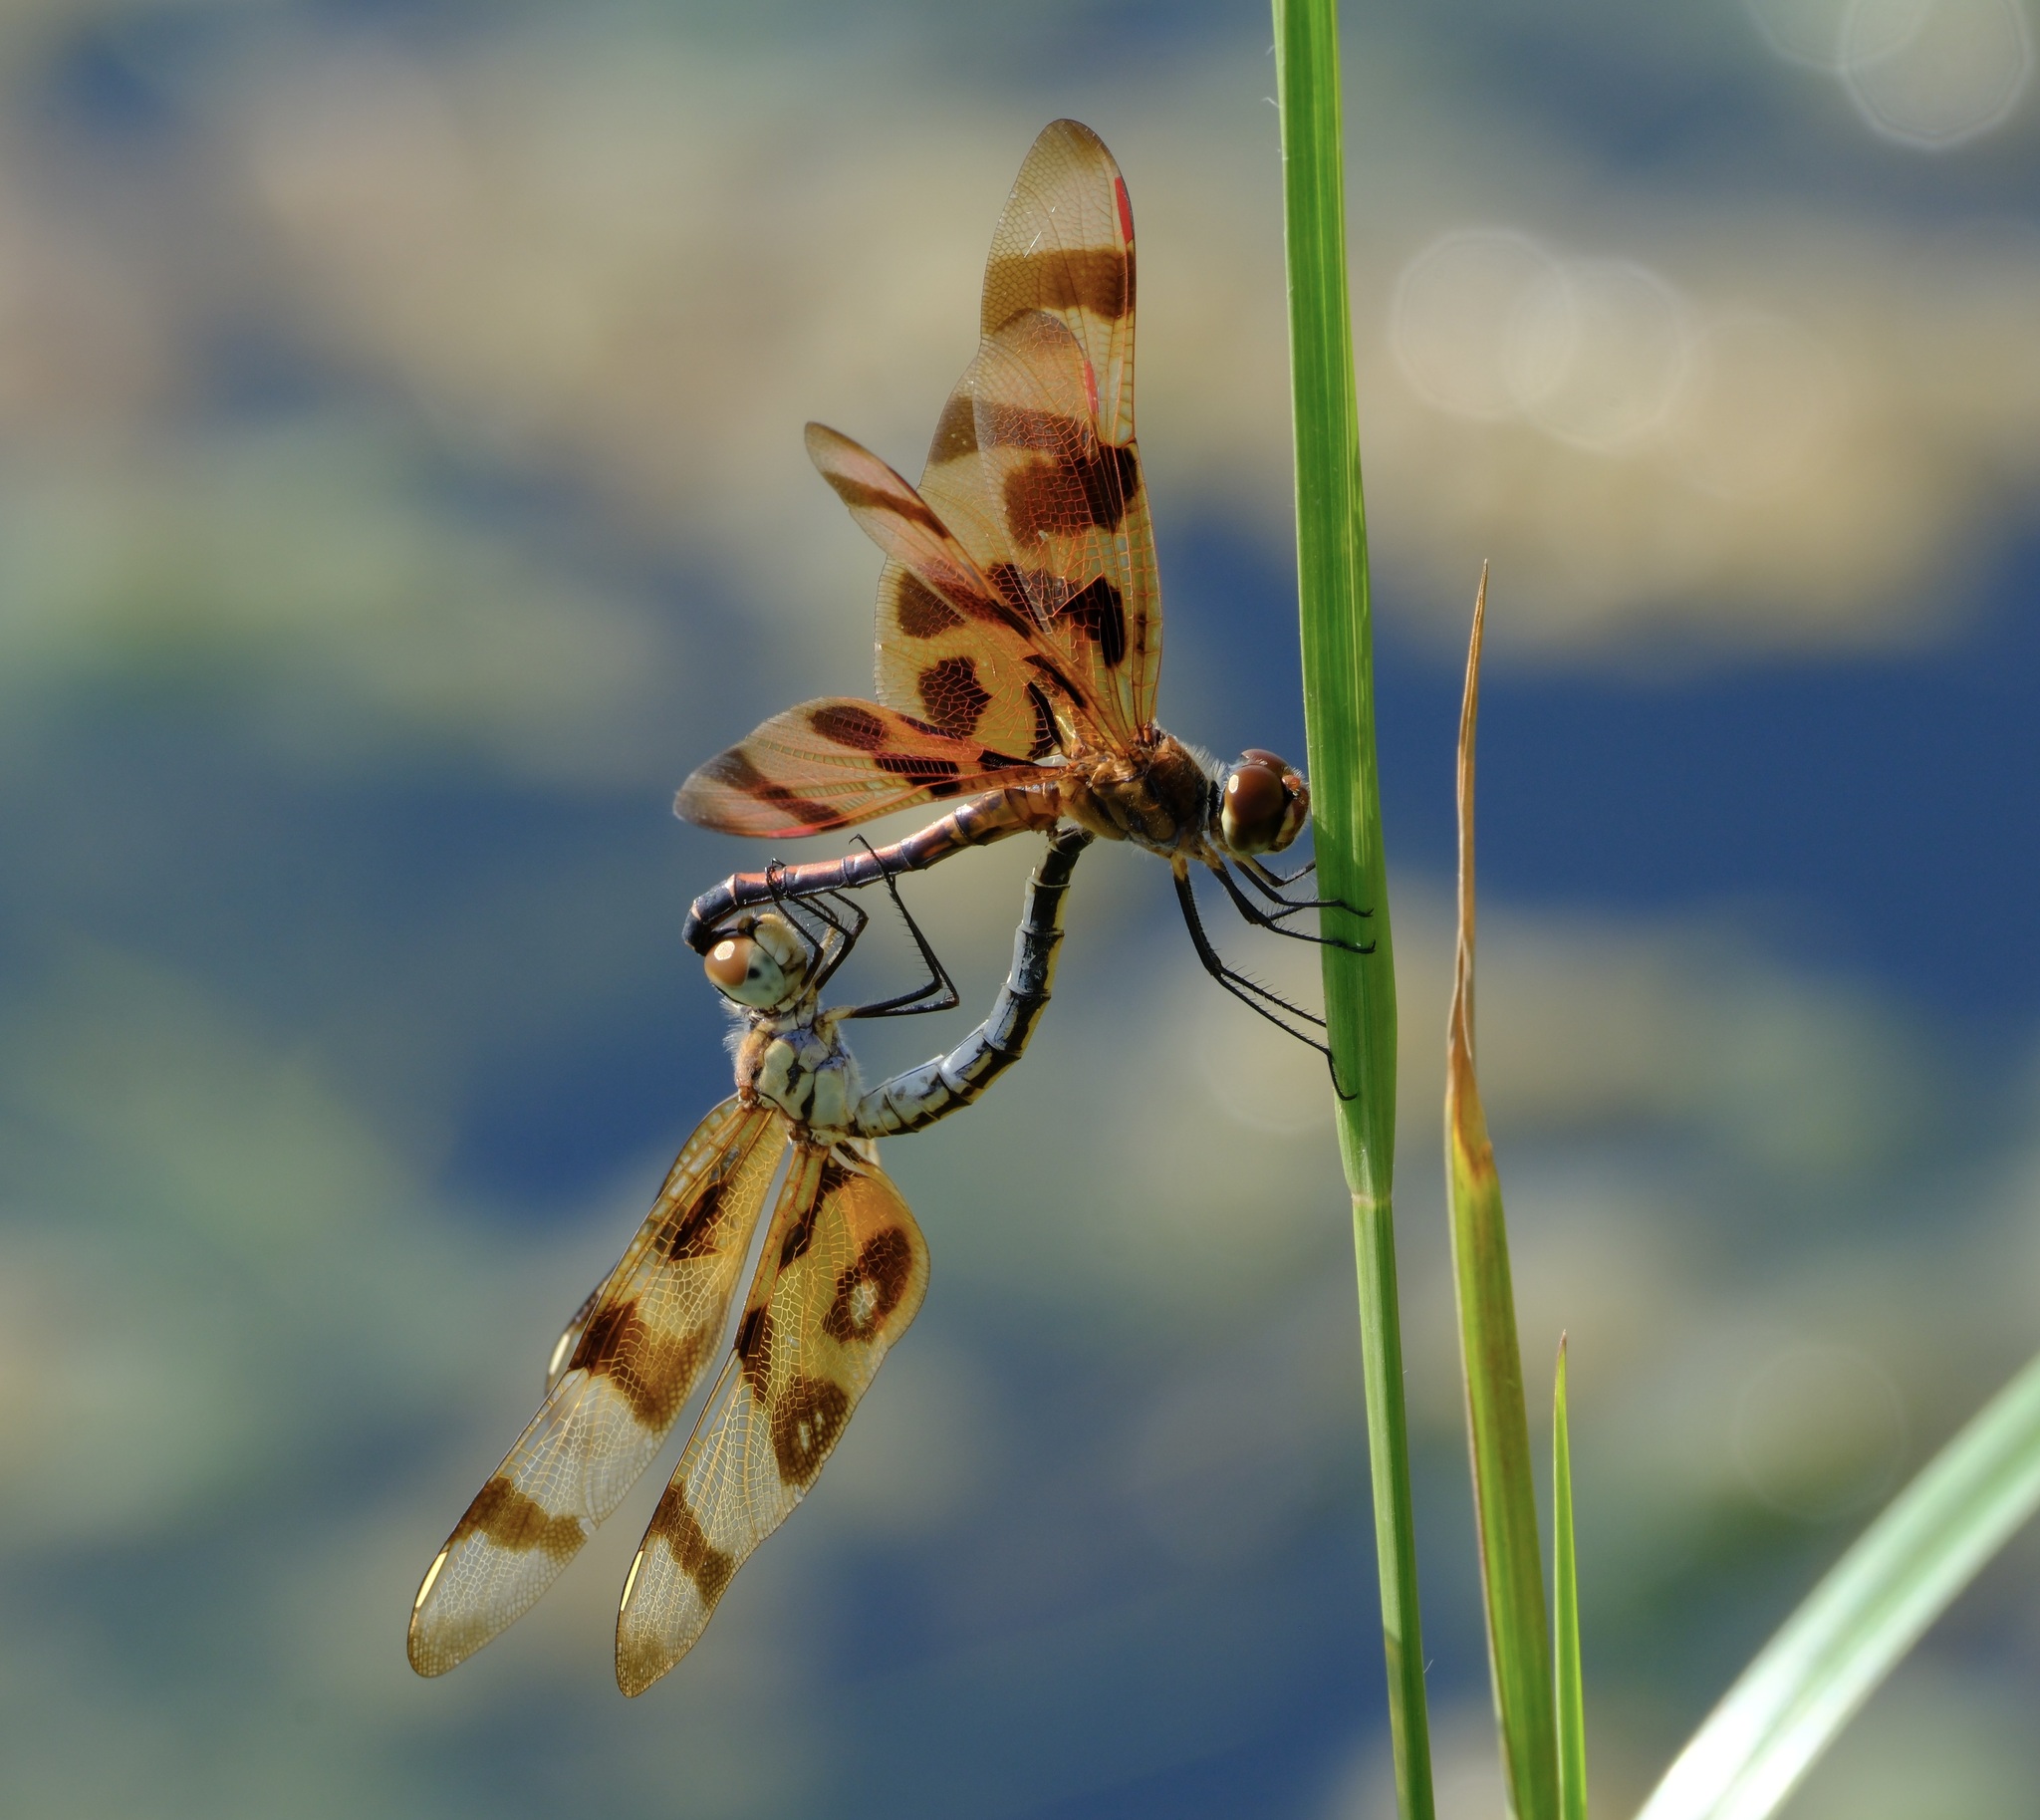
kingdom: Animalia
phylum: Arthropoda
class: Insecta
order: Odonata
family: Libellulidae
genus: Celithemis
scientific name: Celithemis eponina
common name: Halloween pennant
